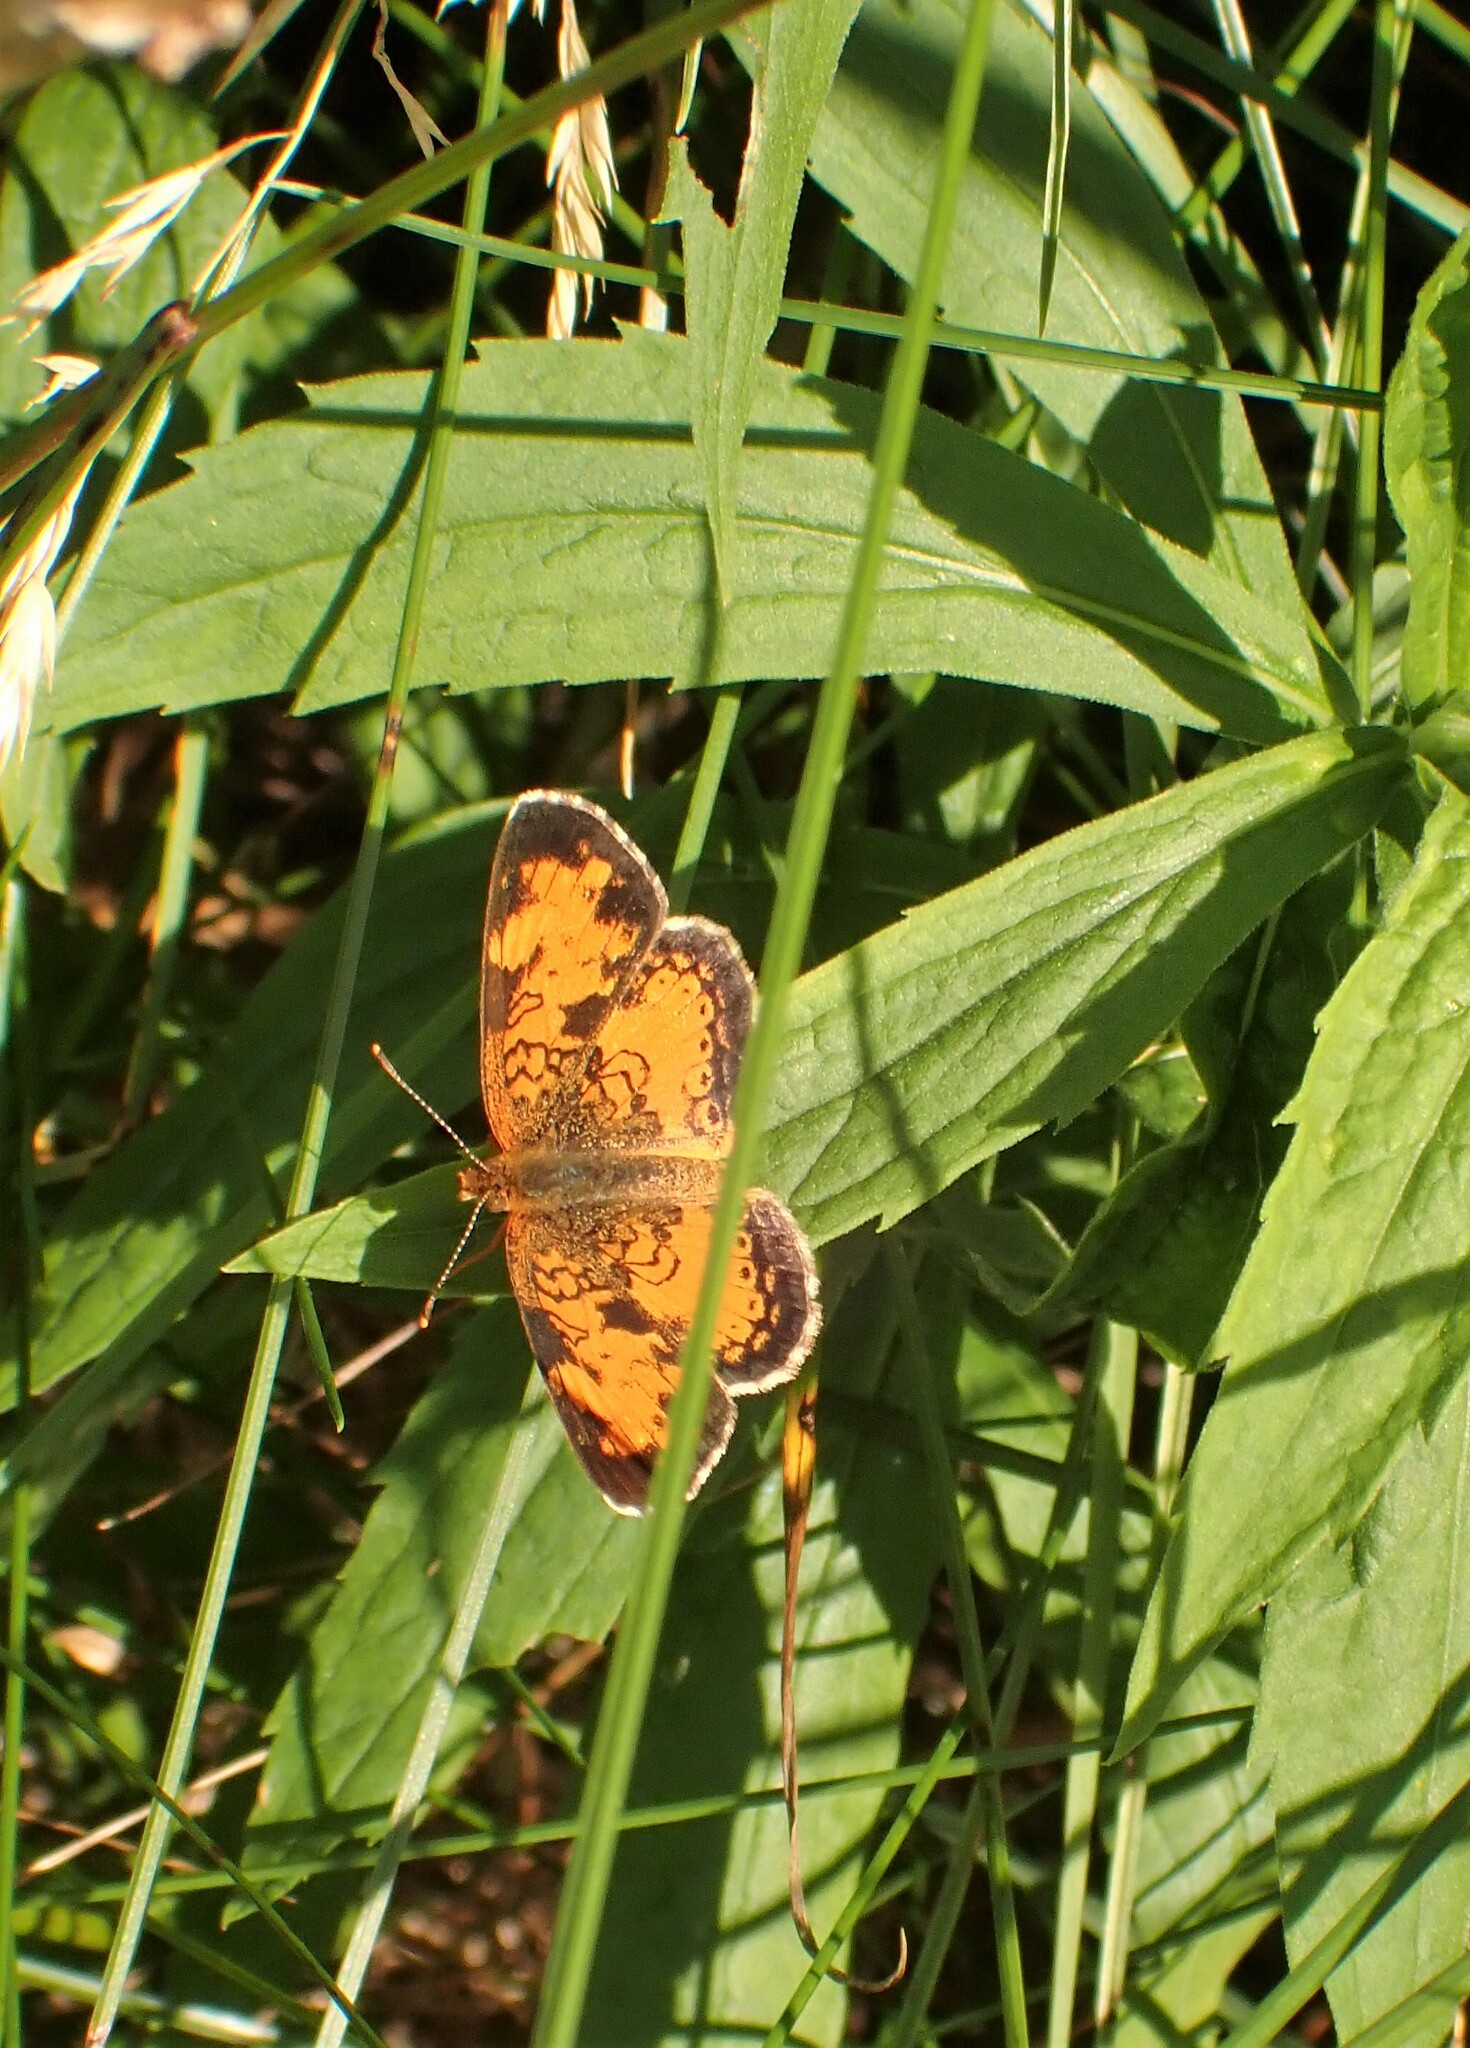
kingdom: Animalia
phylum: Arthropoda
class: Insecta
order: Lepidoptera
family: Nymphalidae
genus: Phyciodes
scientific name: Phyciodes tharos
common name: Pearl crescent
